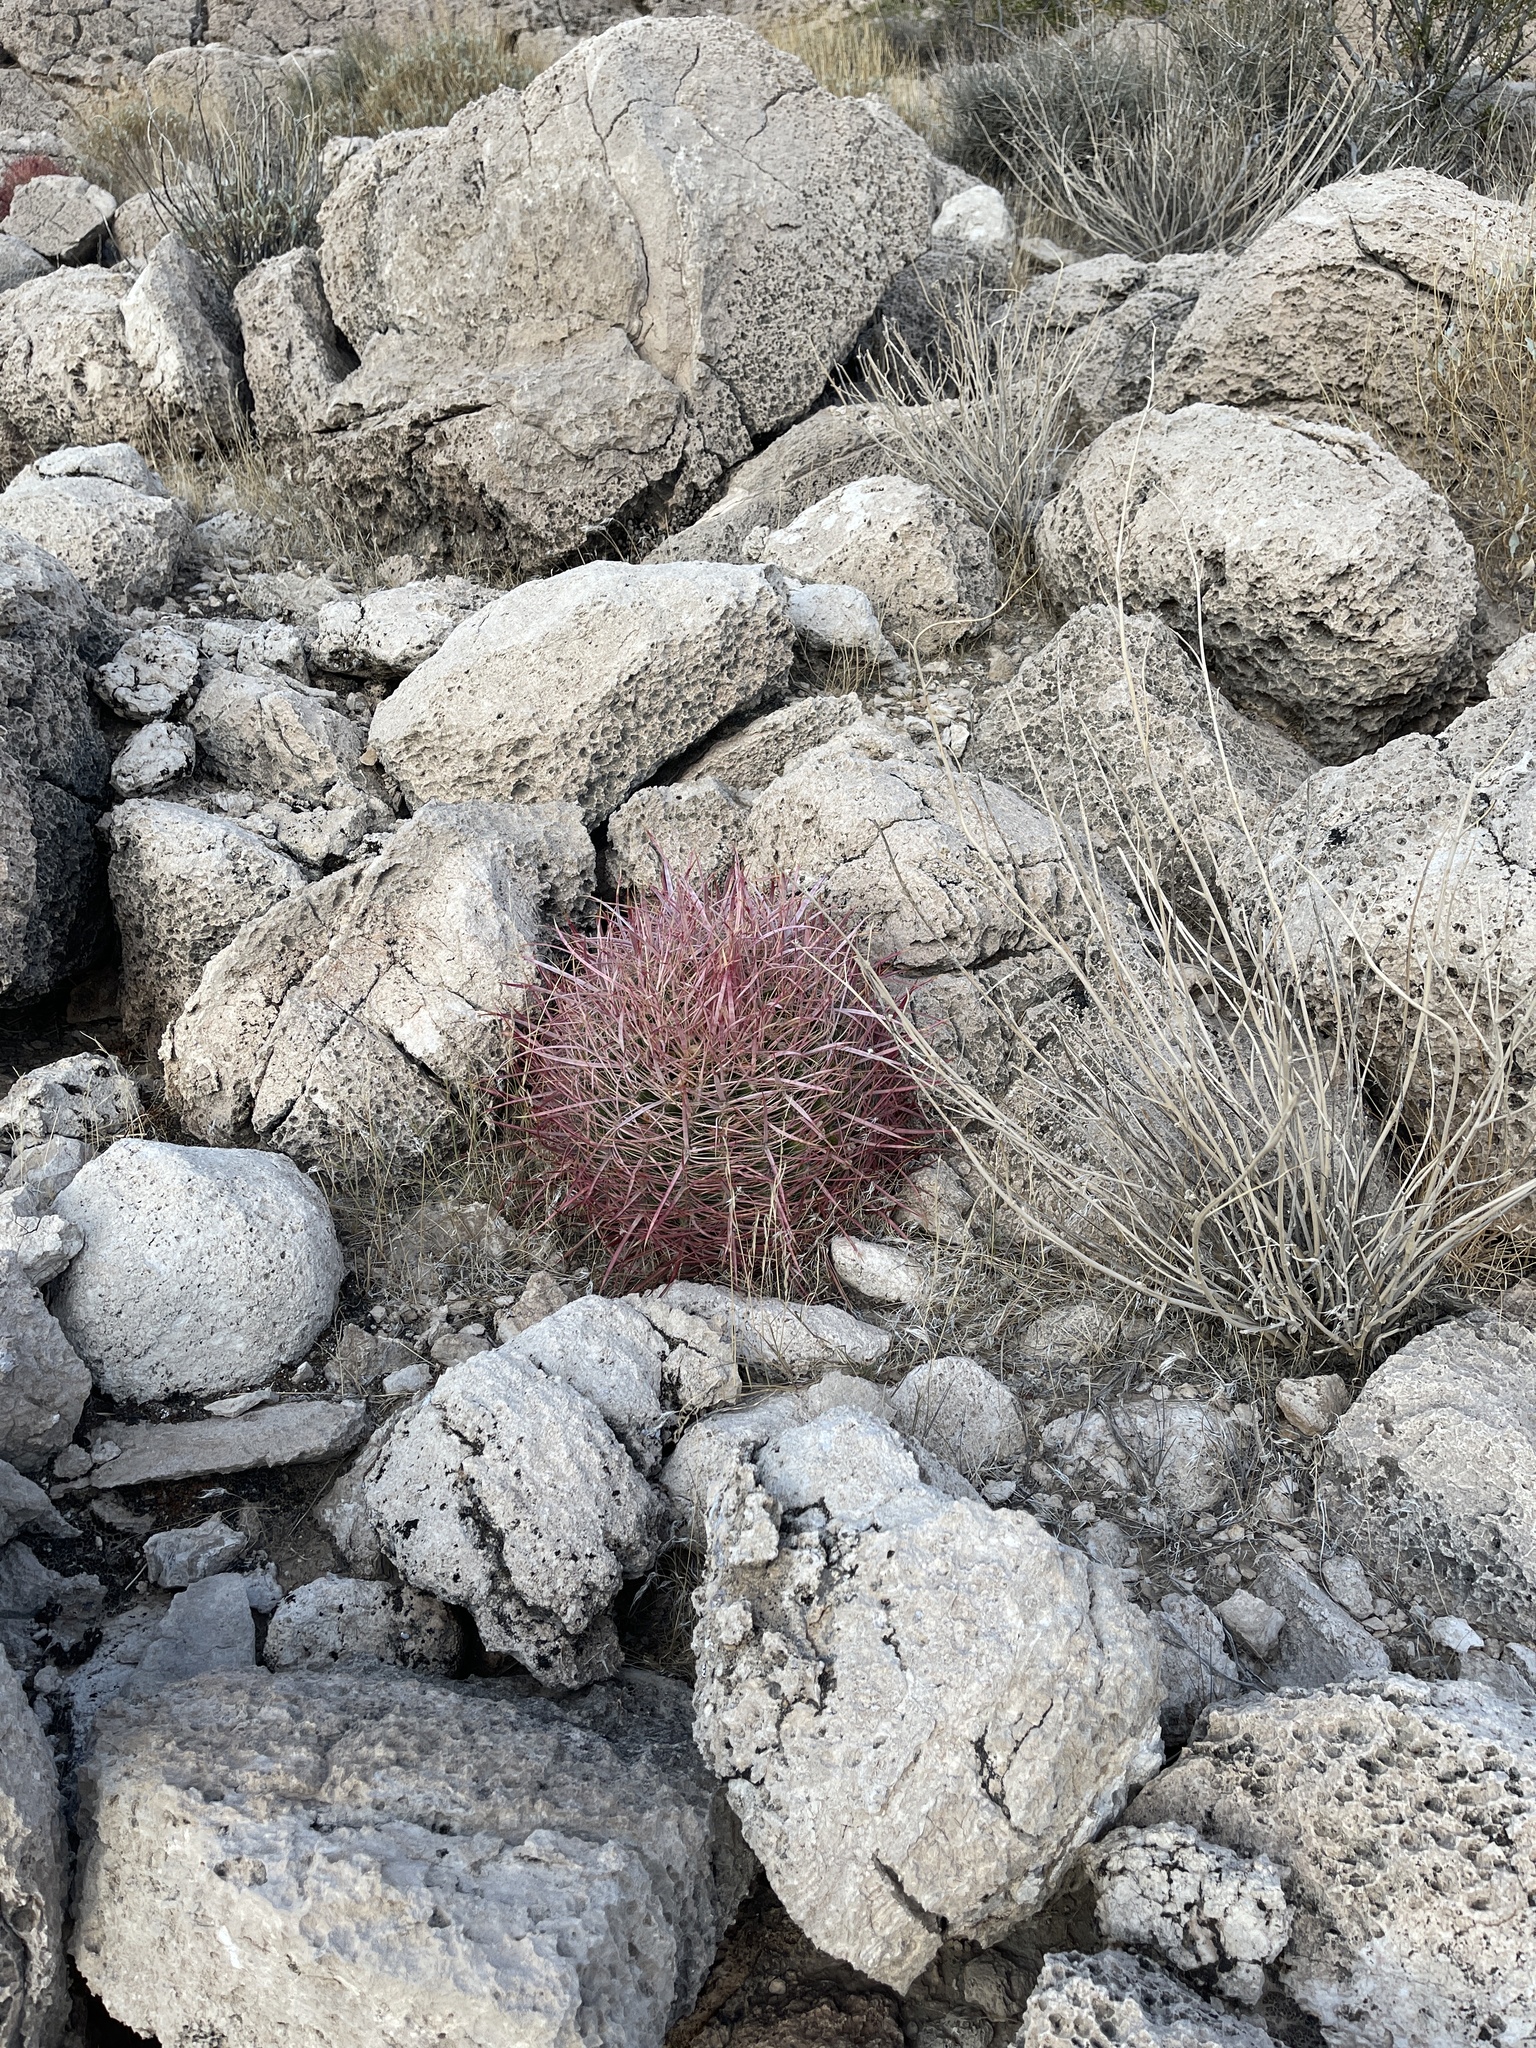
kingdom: Plantae
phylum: Tracheophyta
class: Magnoliopsida
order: Caryophyllales
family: Cactaceae
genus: Ferocactus
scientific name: Ferocactus cylindraceus
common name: California barrel cactus
